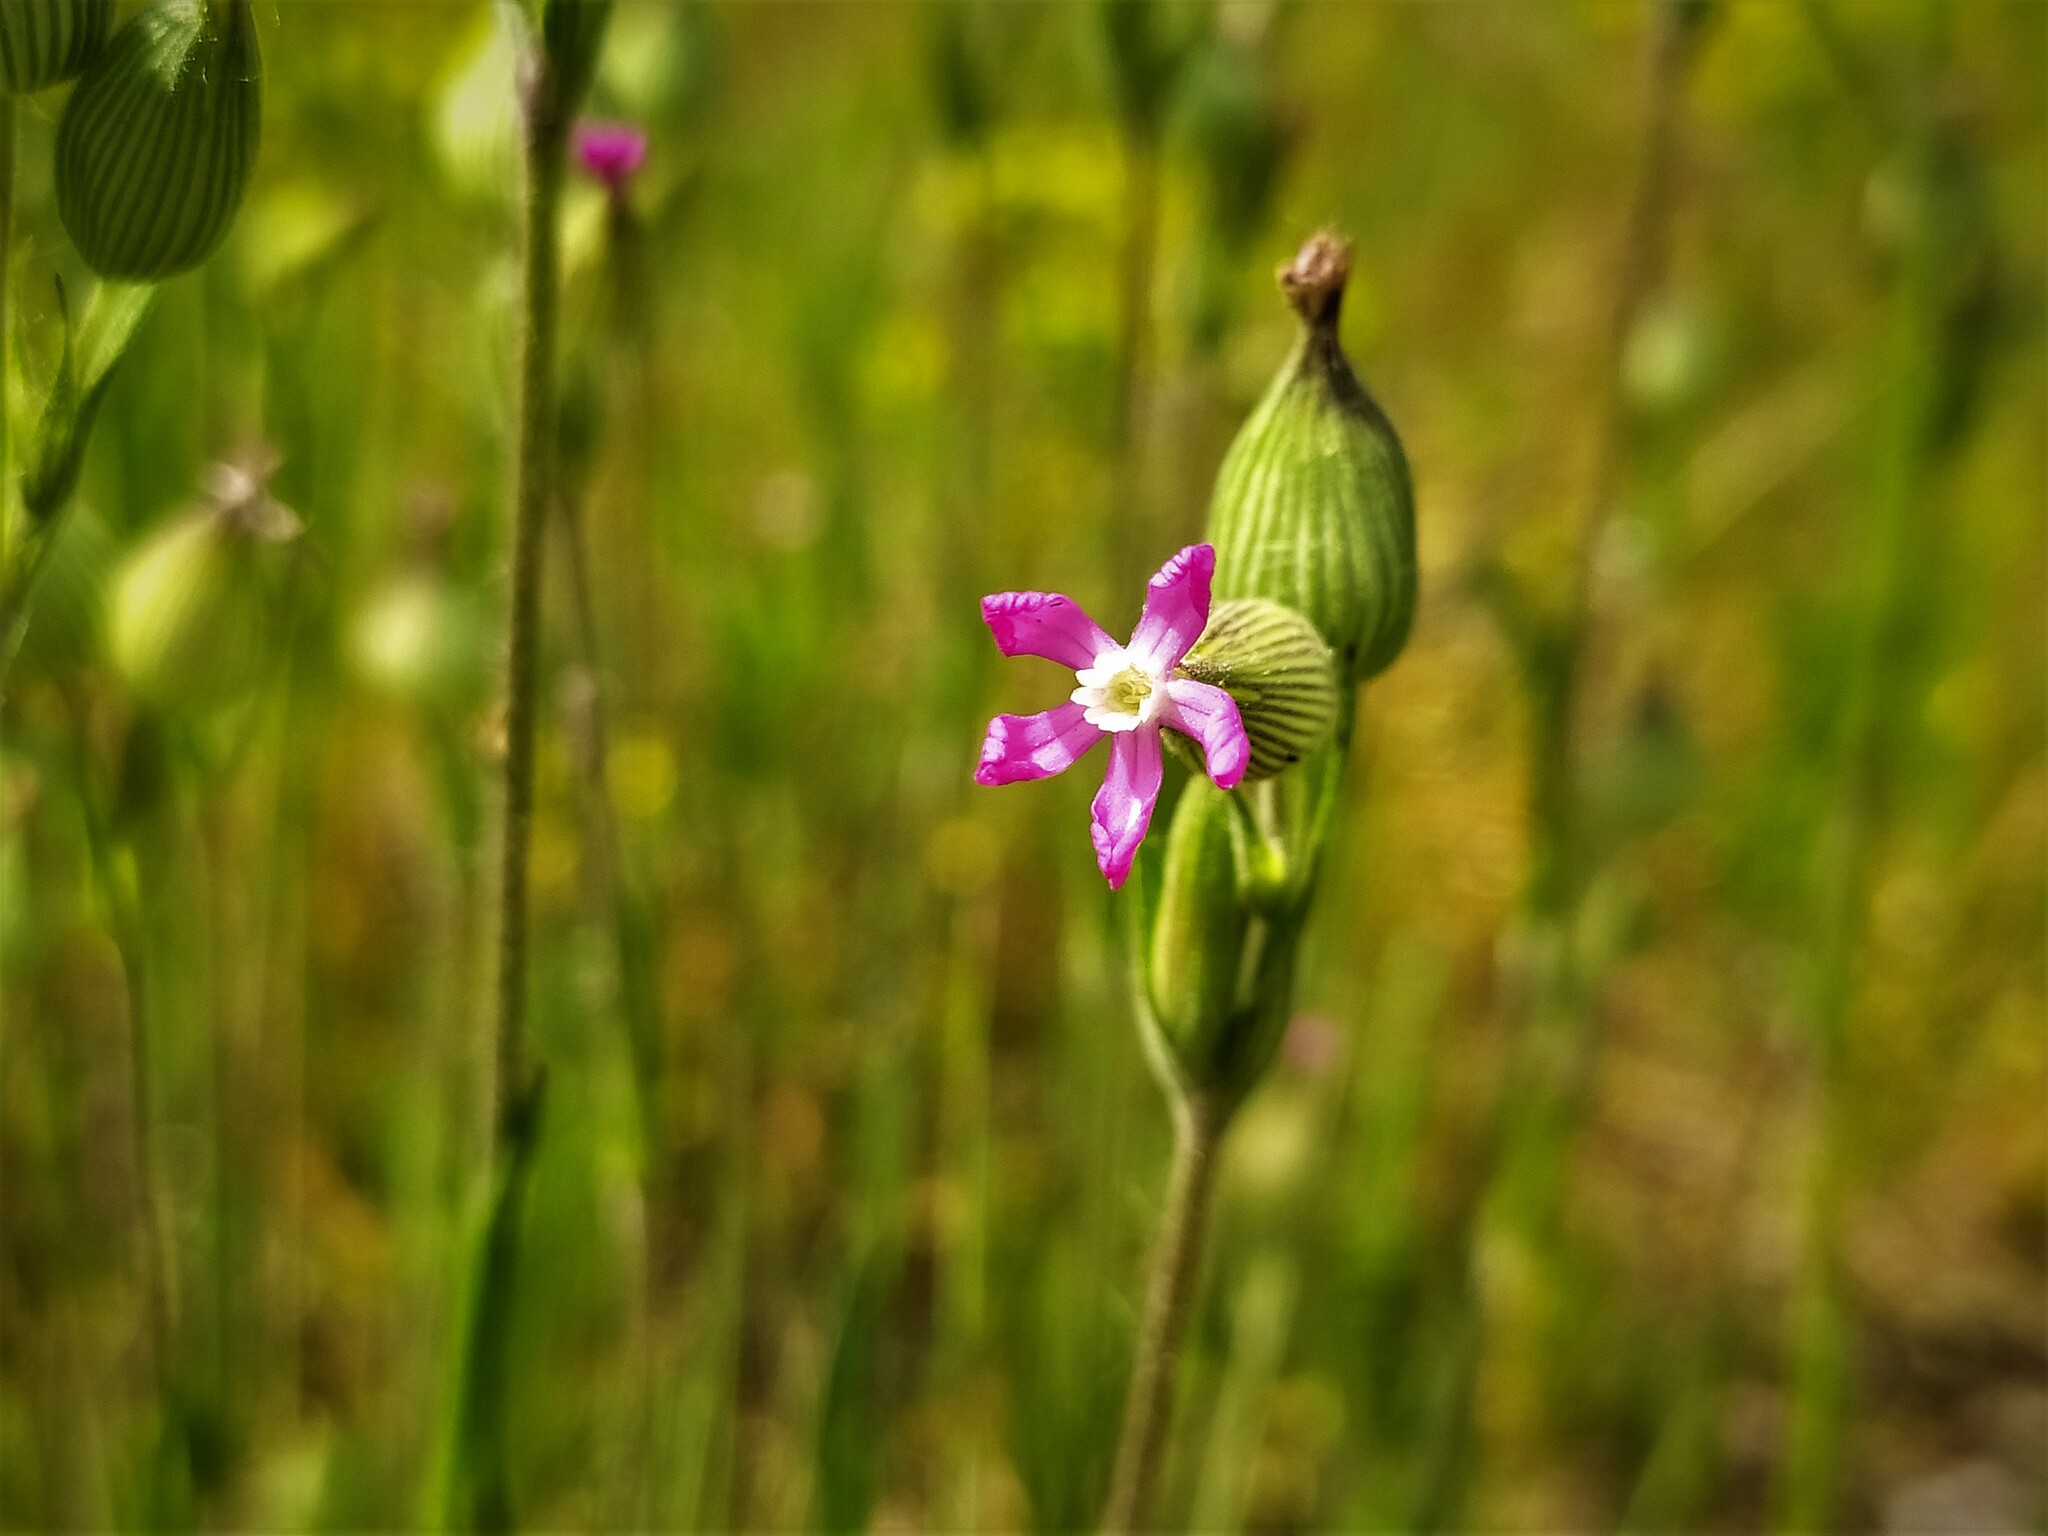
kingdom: Plantae
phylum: Tracheophyta
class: Magnoliopsida
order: Caryophyllales
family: Caryophyllaceae
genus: Silene
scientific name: Silene conica
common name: Sand catchfly
